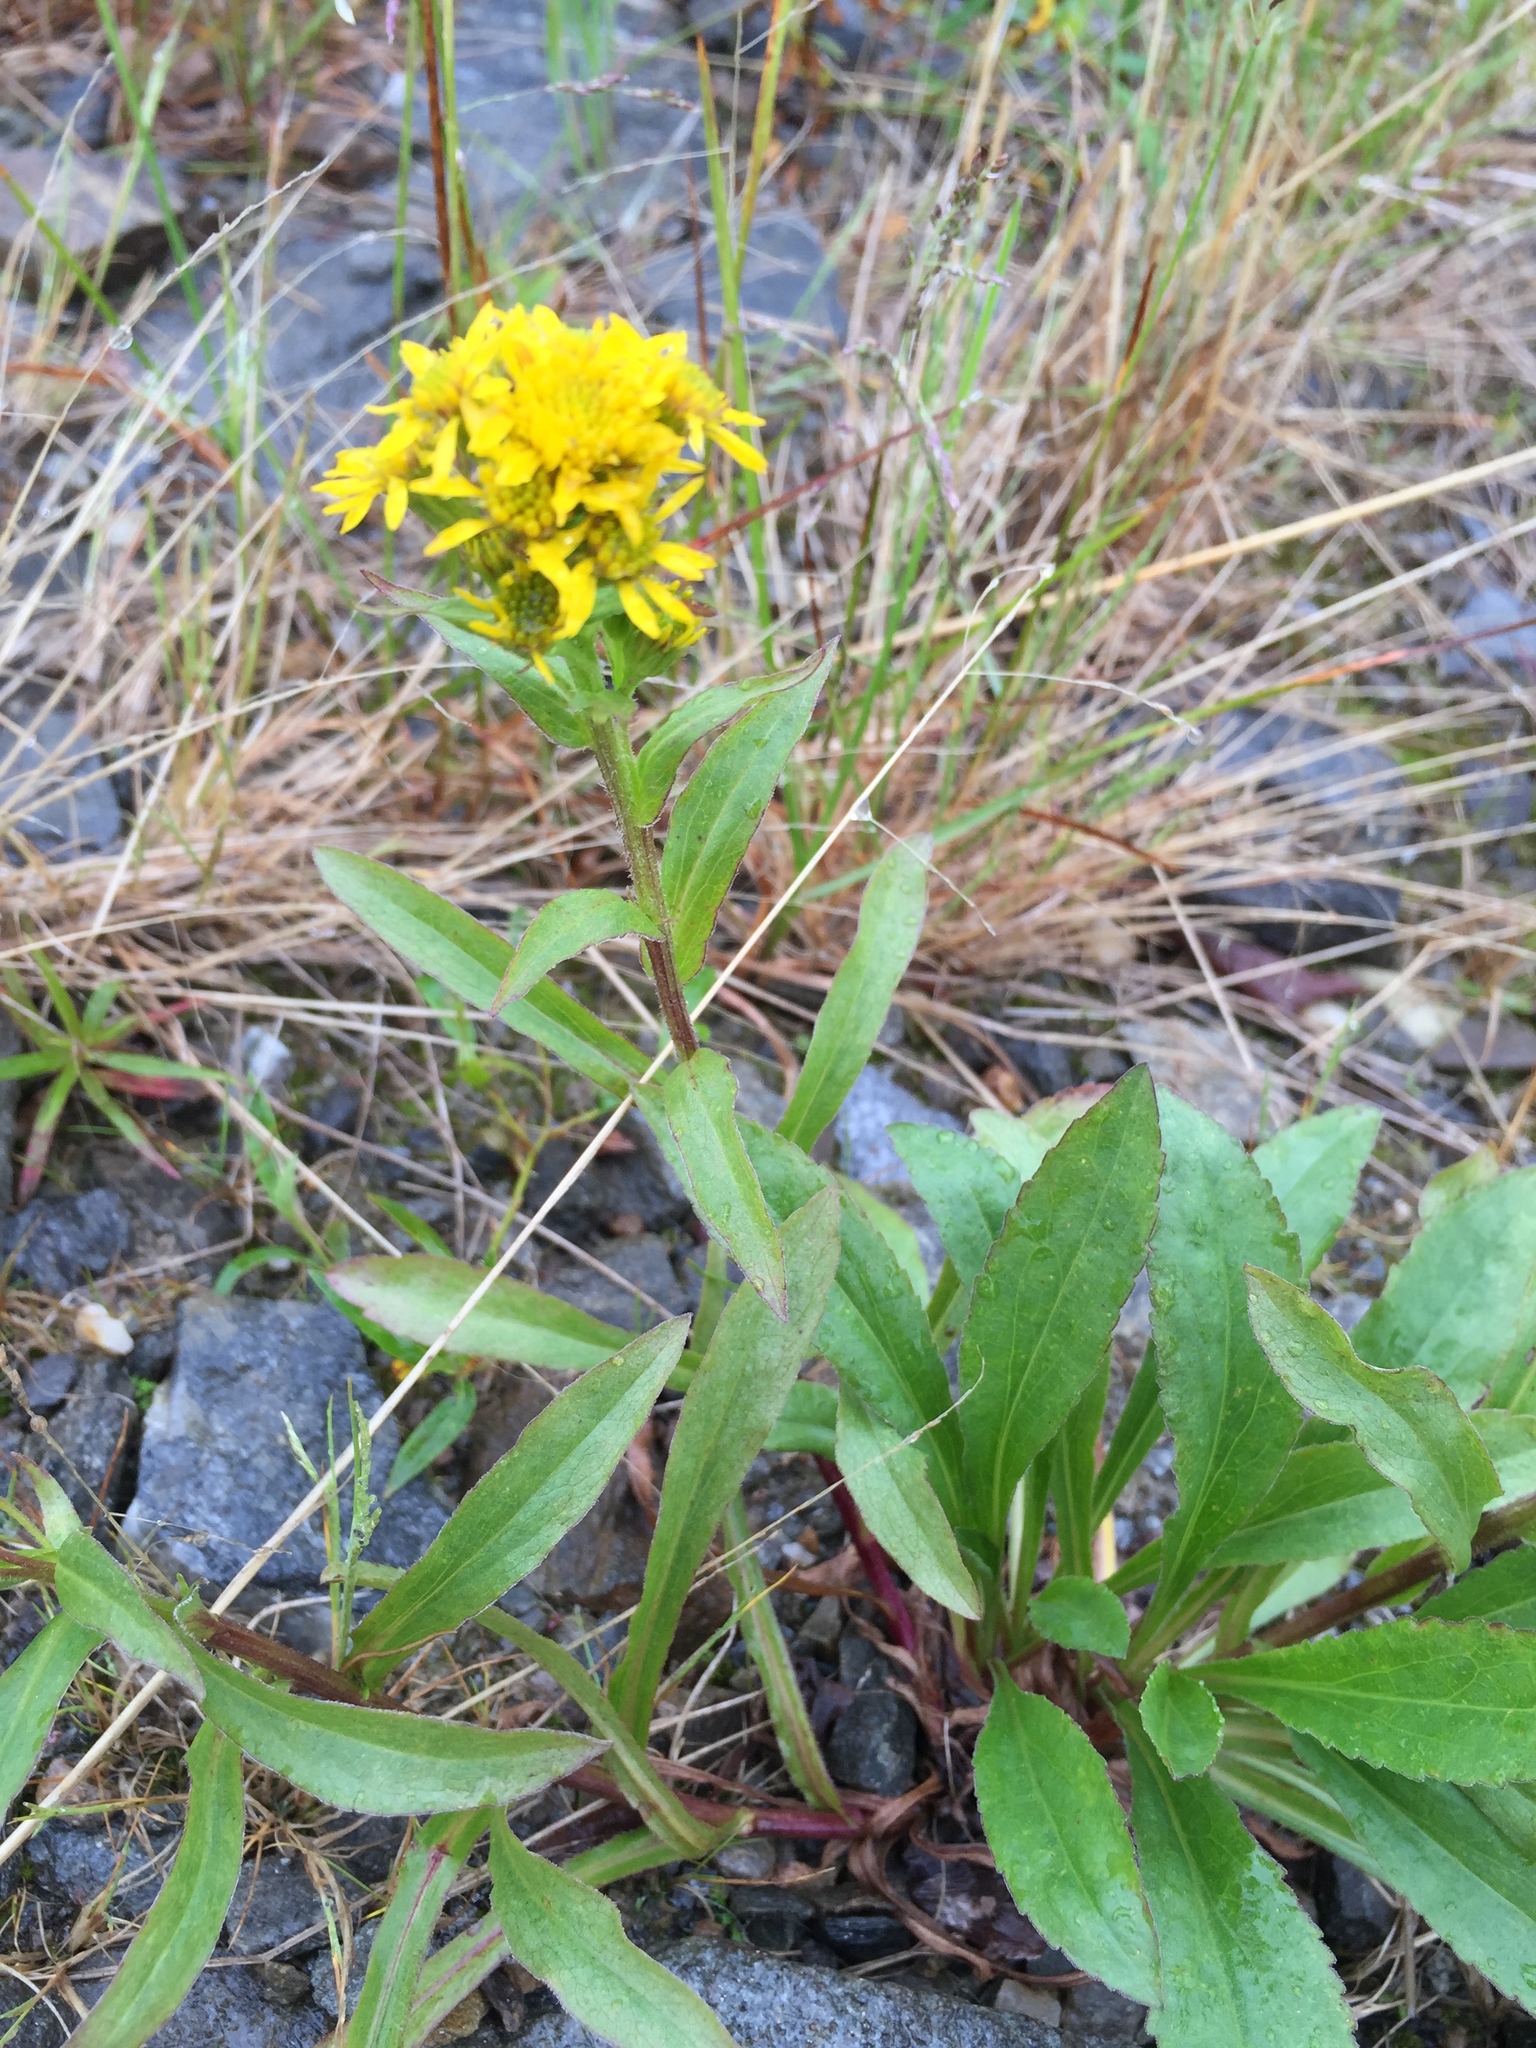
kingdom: Plantae
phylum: Tracheophyta
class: Magnoliopsida
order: Asterales
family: Asteraceae
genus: Solidago
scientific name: Solidago multiradiata
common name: Northern goldenrod
